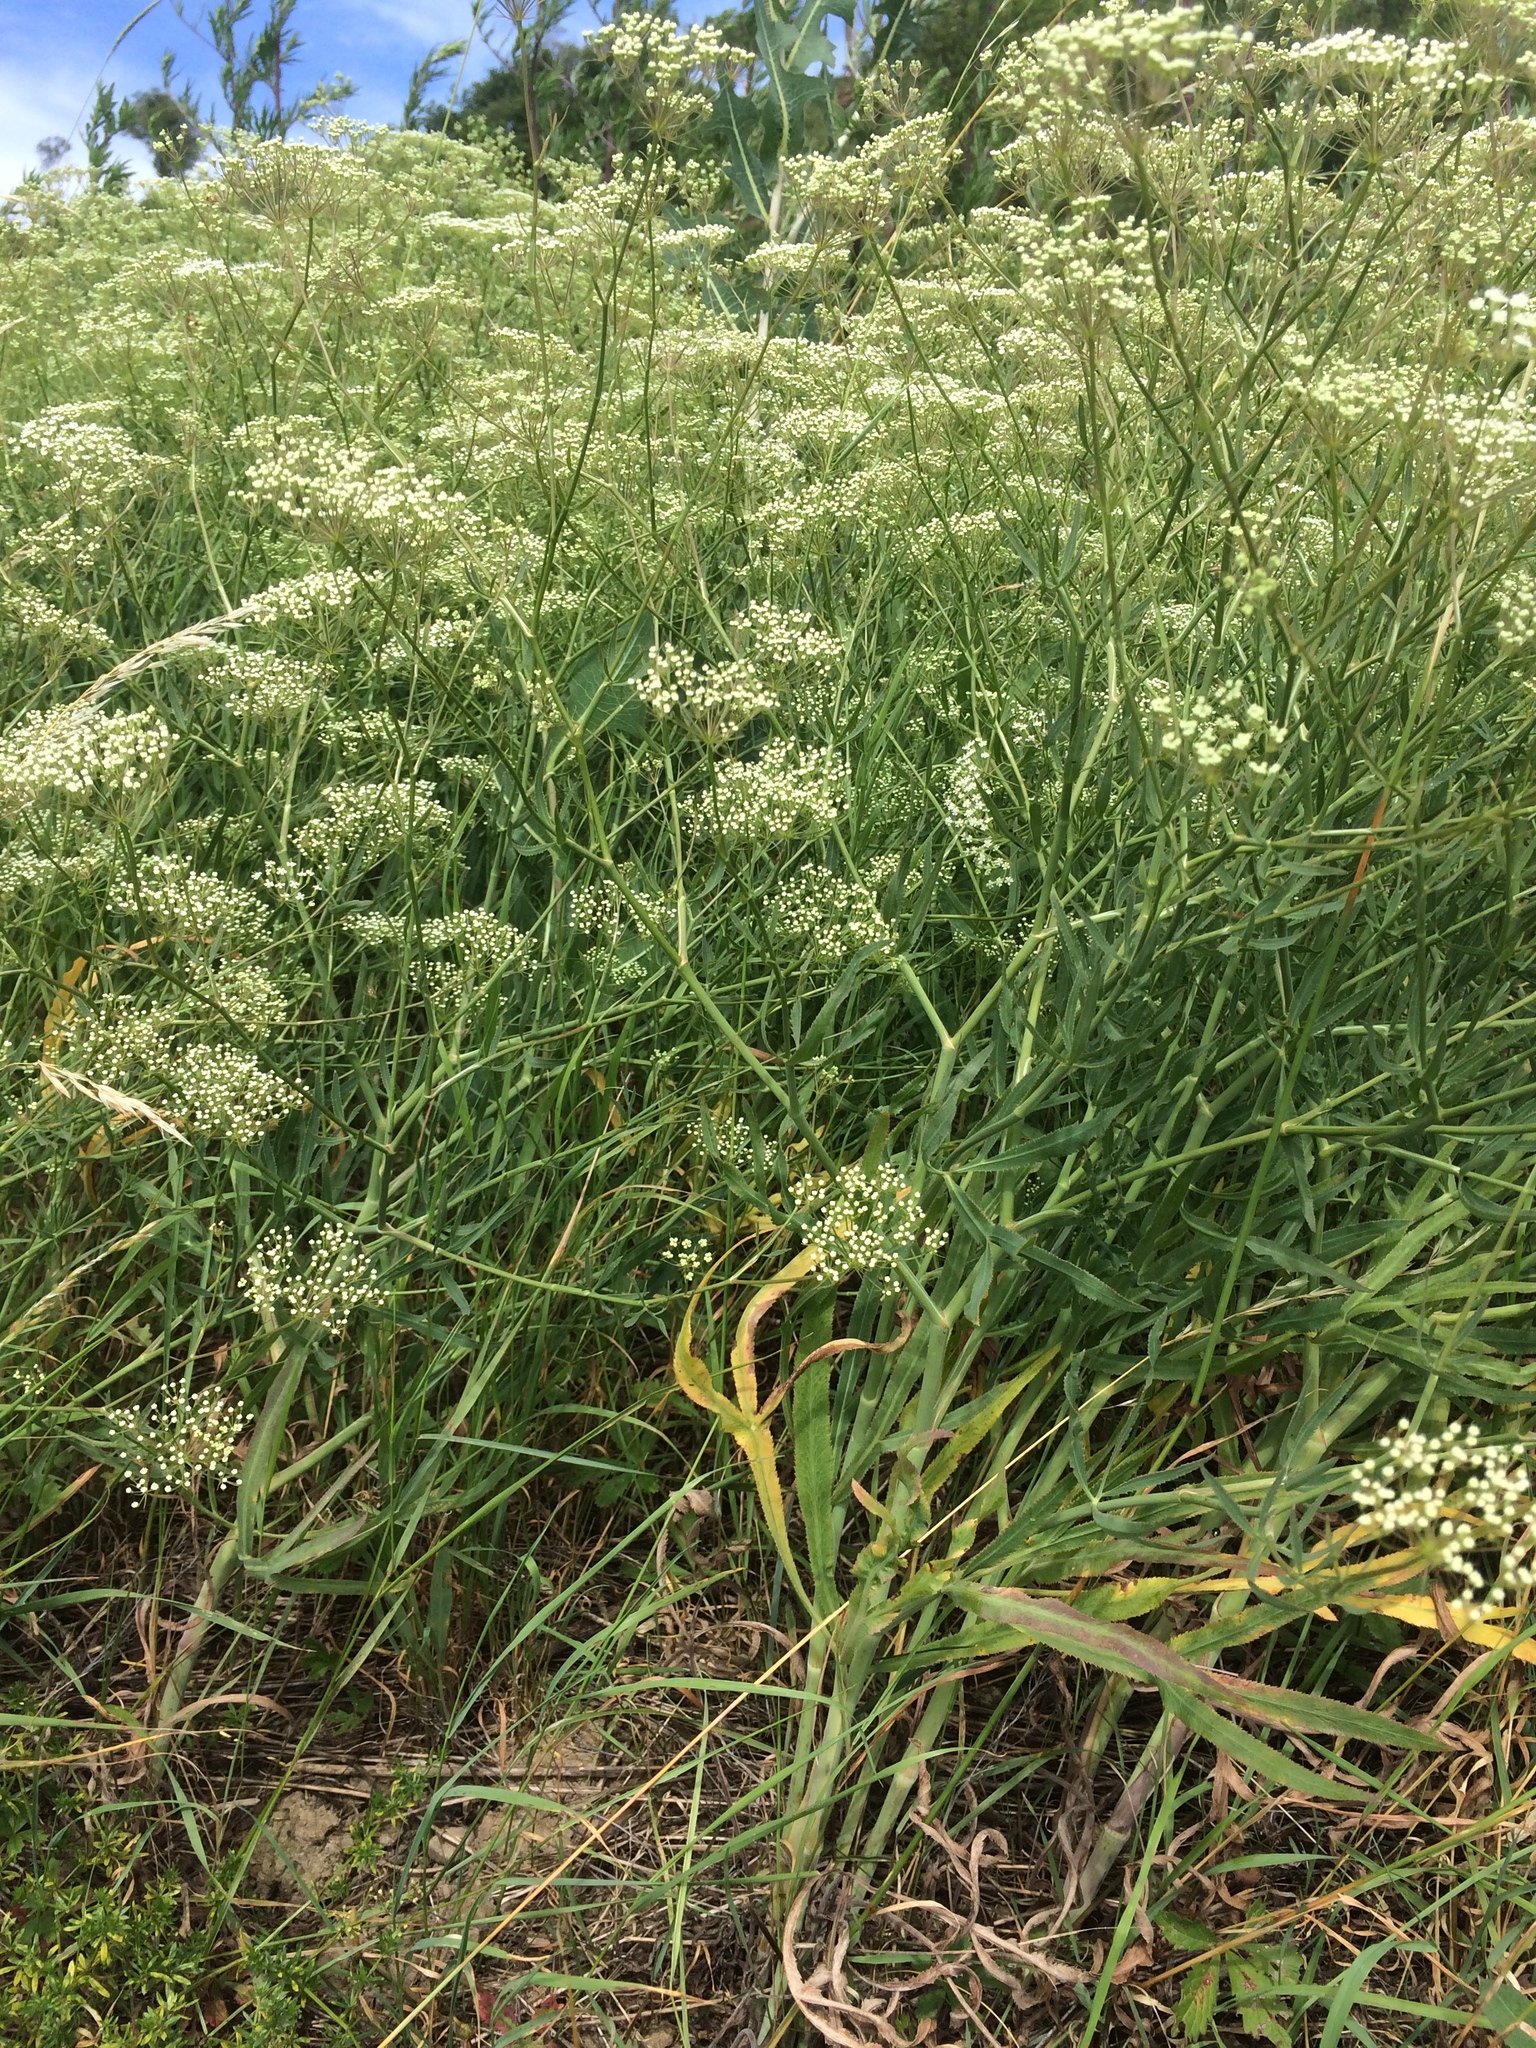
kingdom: Plantae
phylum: Tracheophyta
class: Magnoliopsida
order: Apiales
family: Apiaceae
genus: Falcaria
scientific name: Falcaria vulgaris
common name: Longleaf
